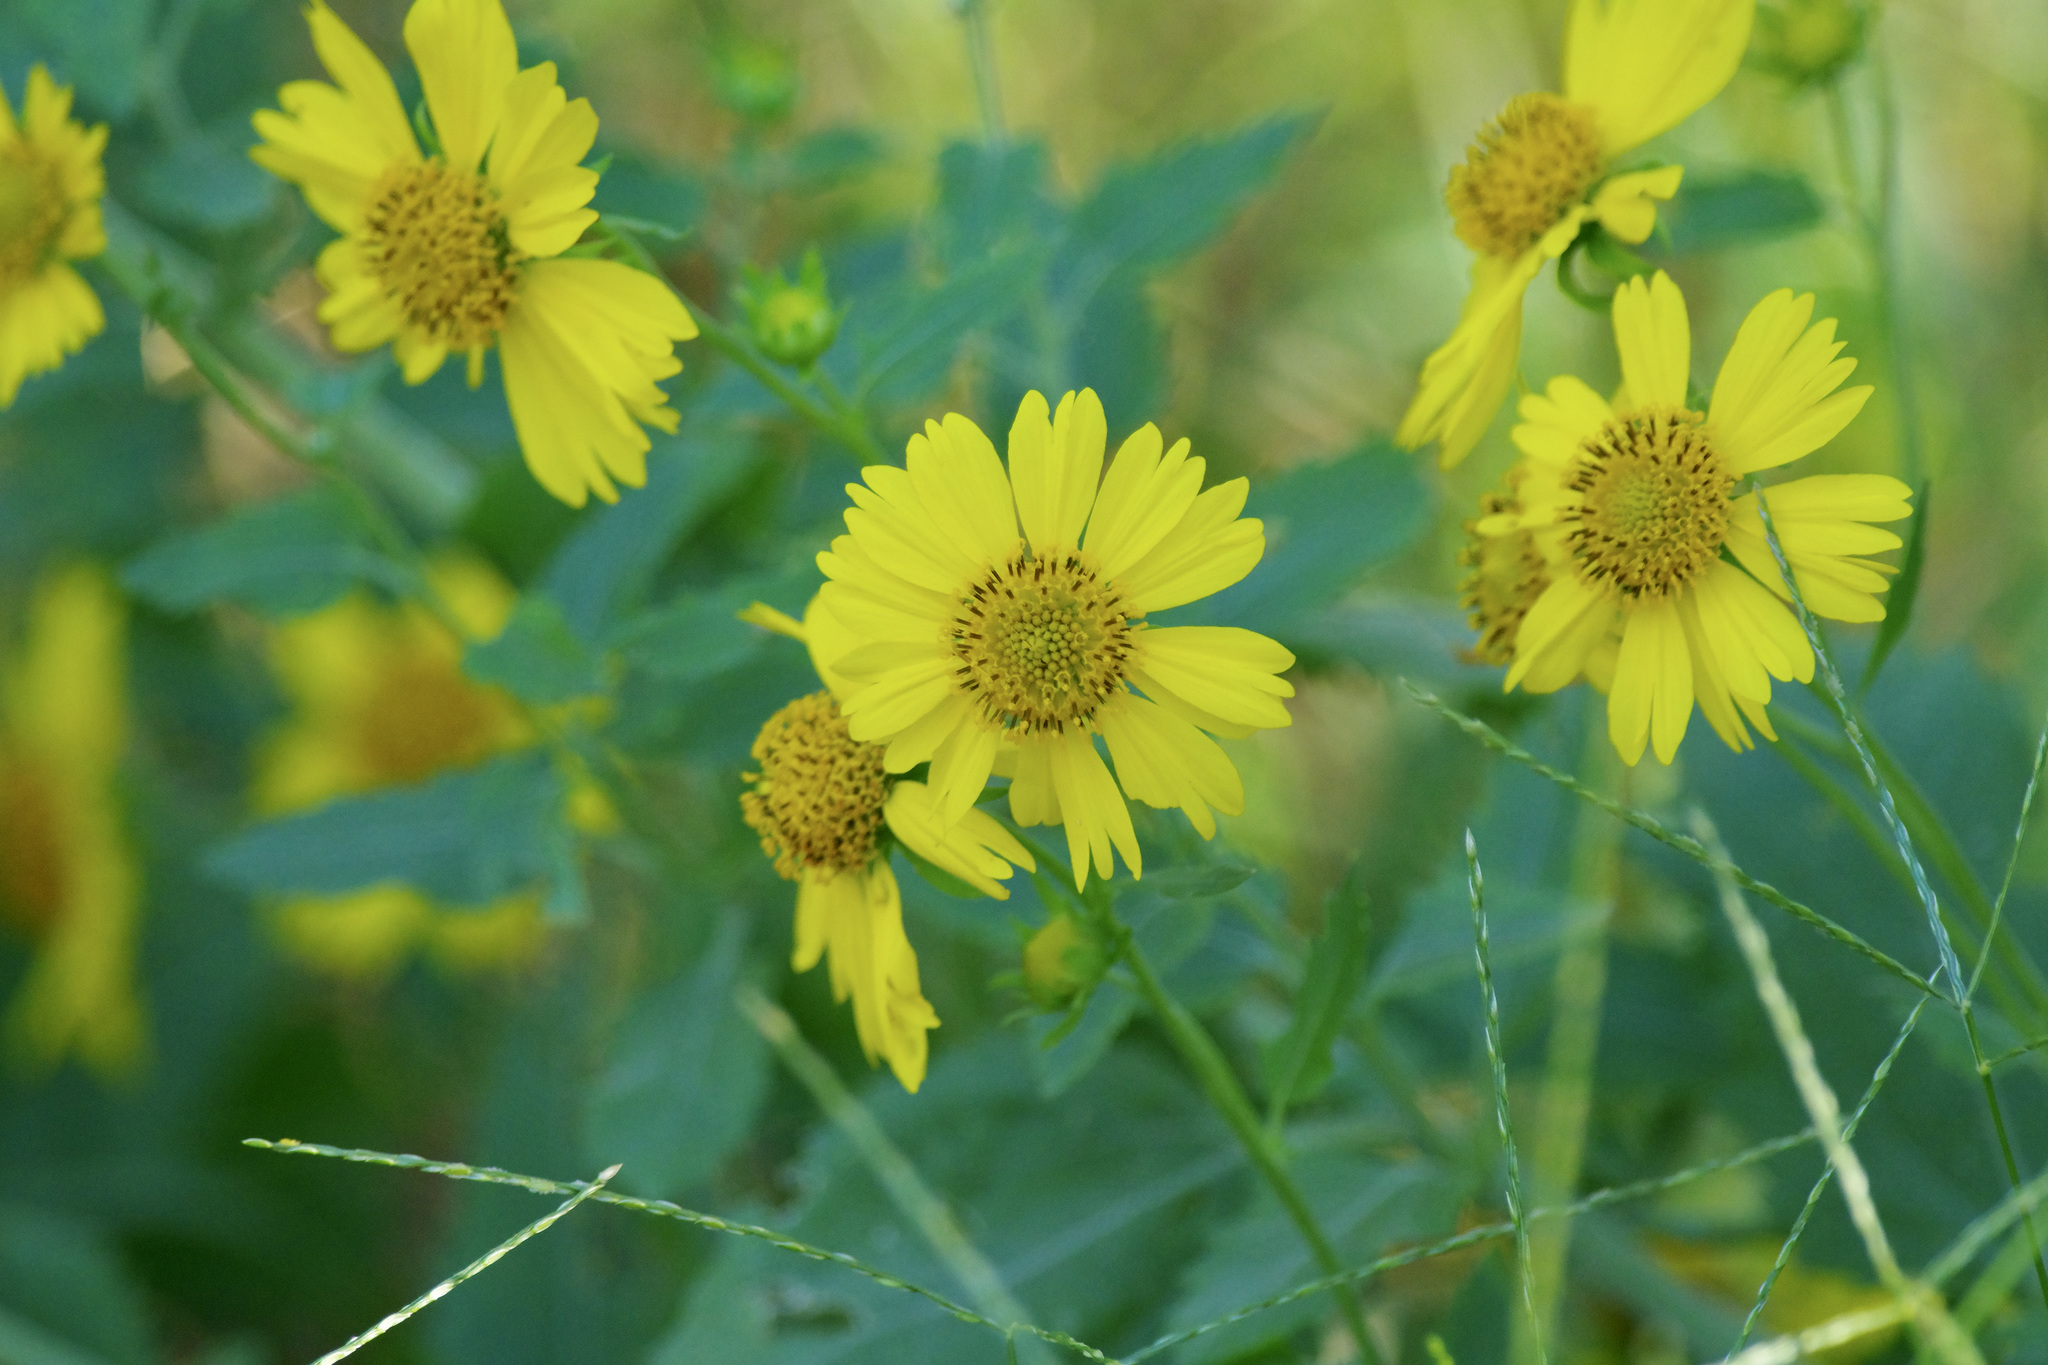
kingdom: Plantae
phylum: Tracheophyta
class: Magnoliopsida
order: Asterales
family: Asteraceae
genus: Verbesina
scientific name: Verbesina encelioides
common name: Golden crownbeard
